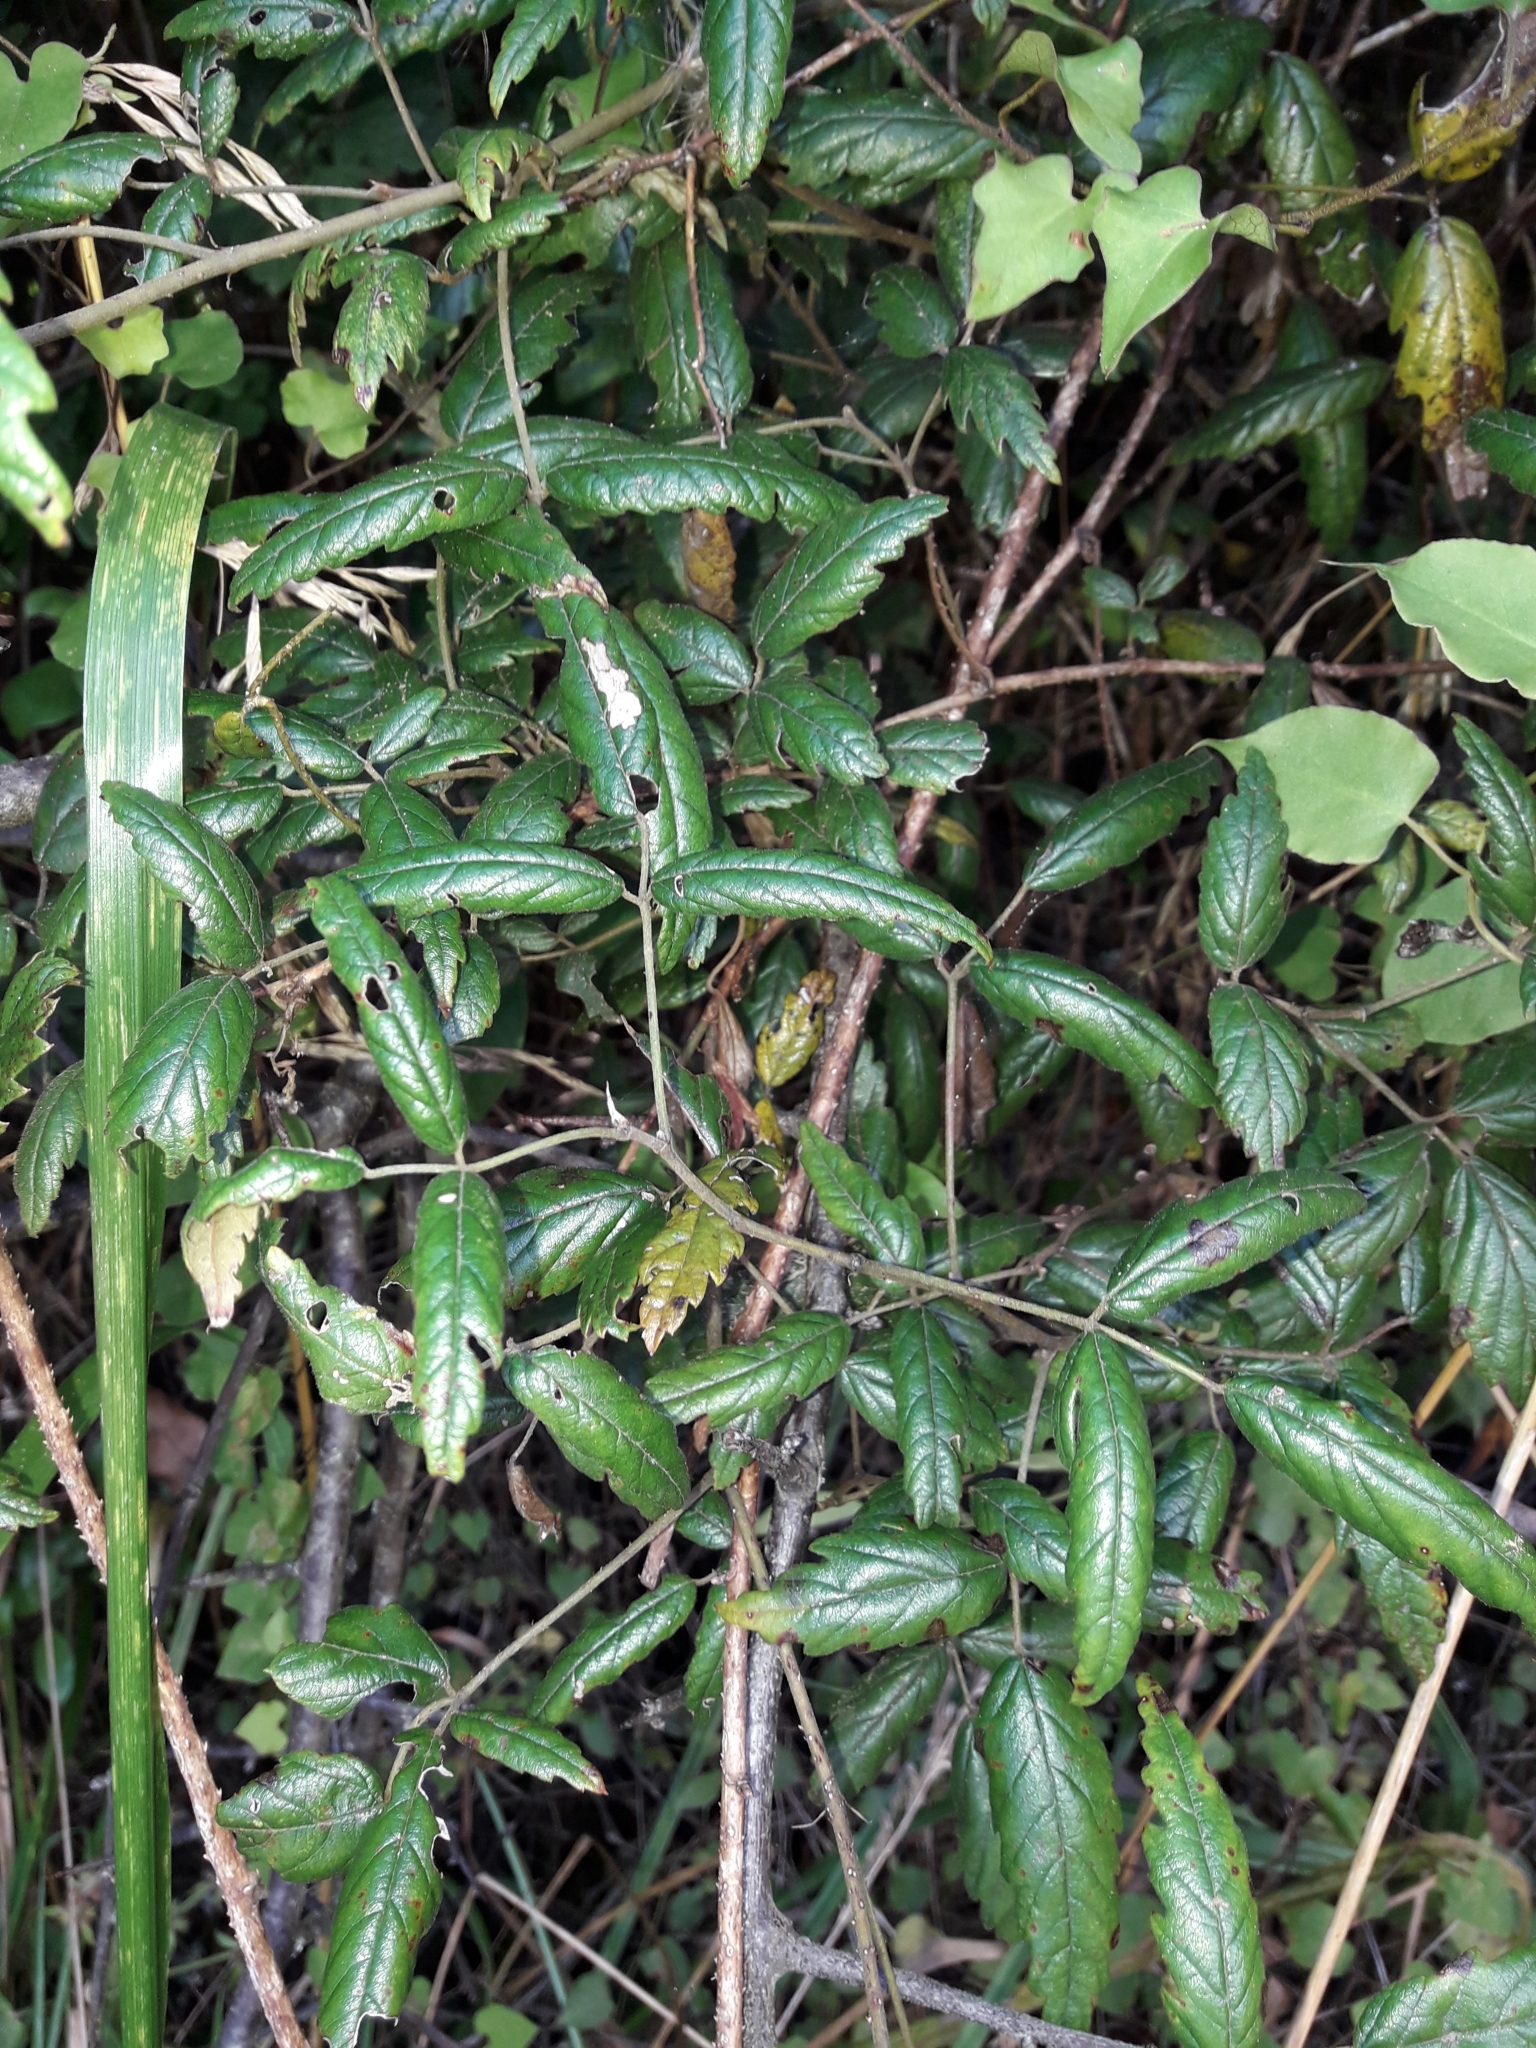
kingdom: Plantae
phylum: Tracheophyta
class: Magnoliopsida
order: Rosales
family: Rosaceae
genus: Rubus
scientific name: Rubus schmidelioides
